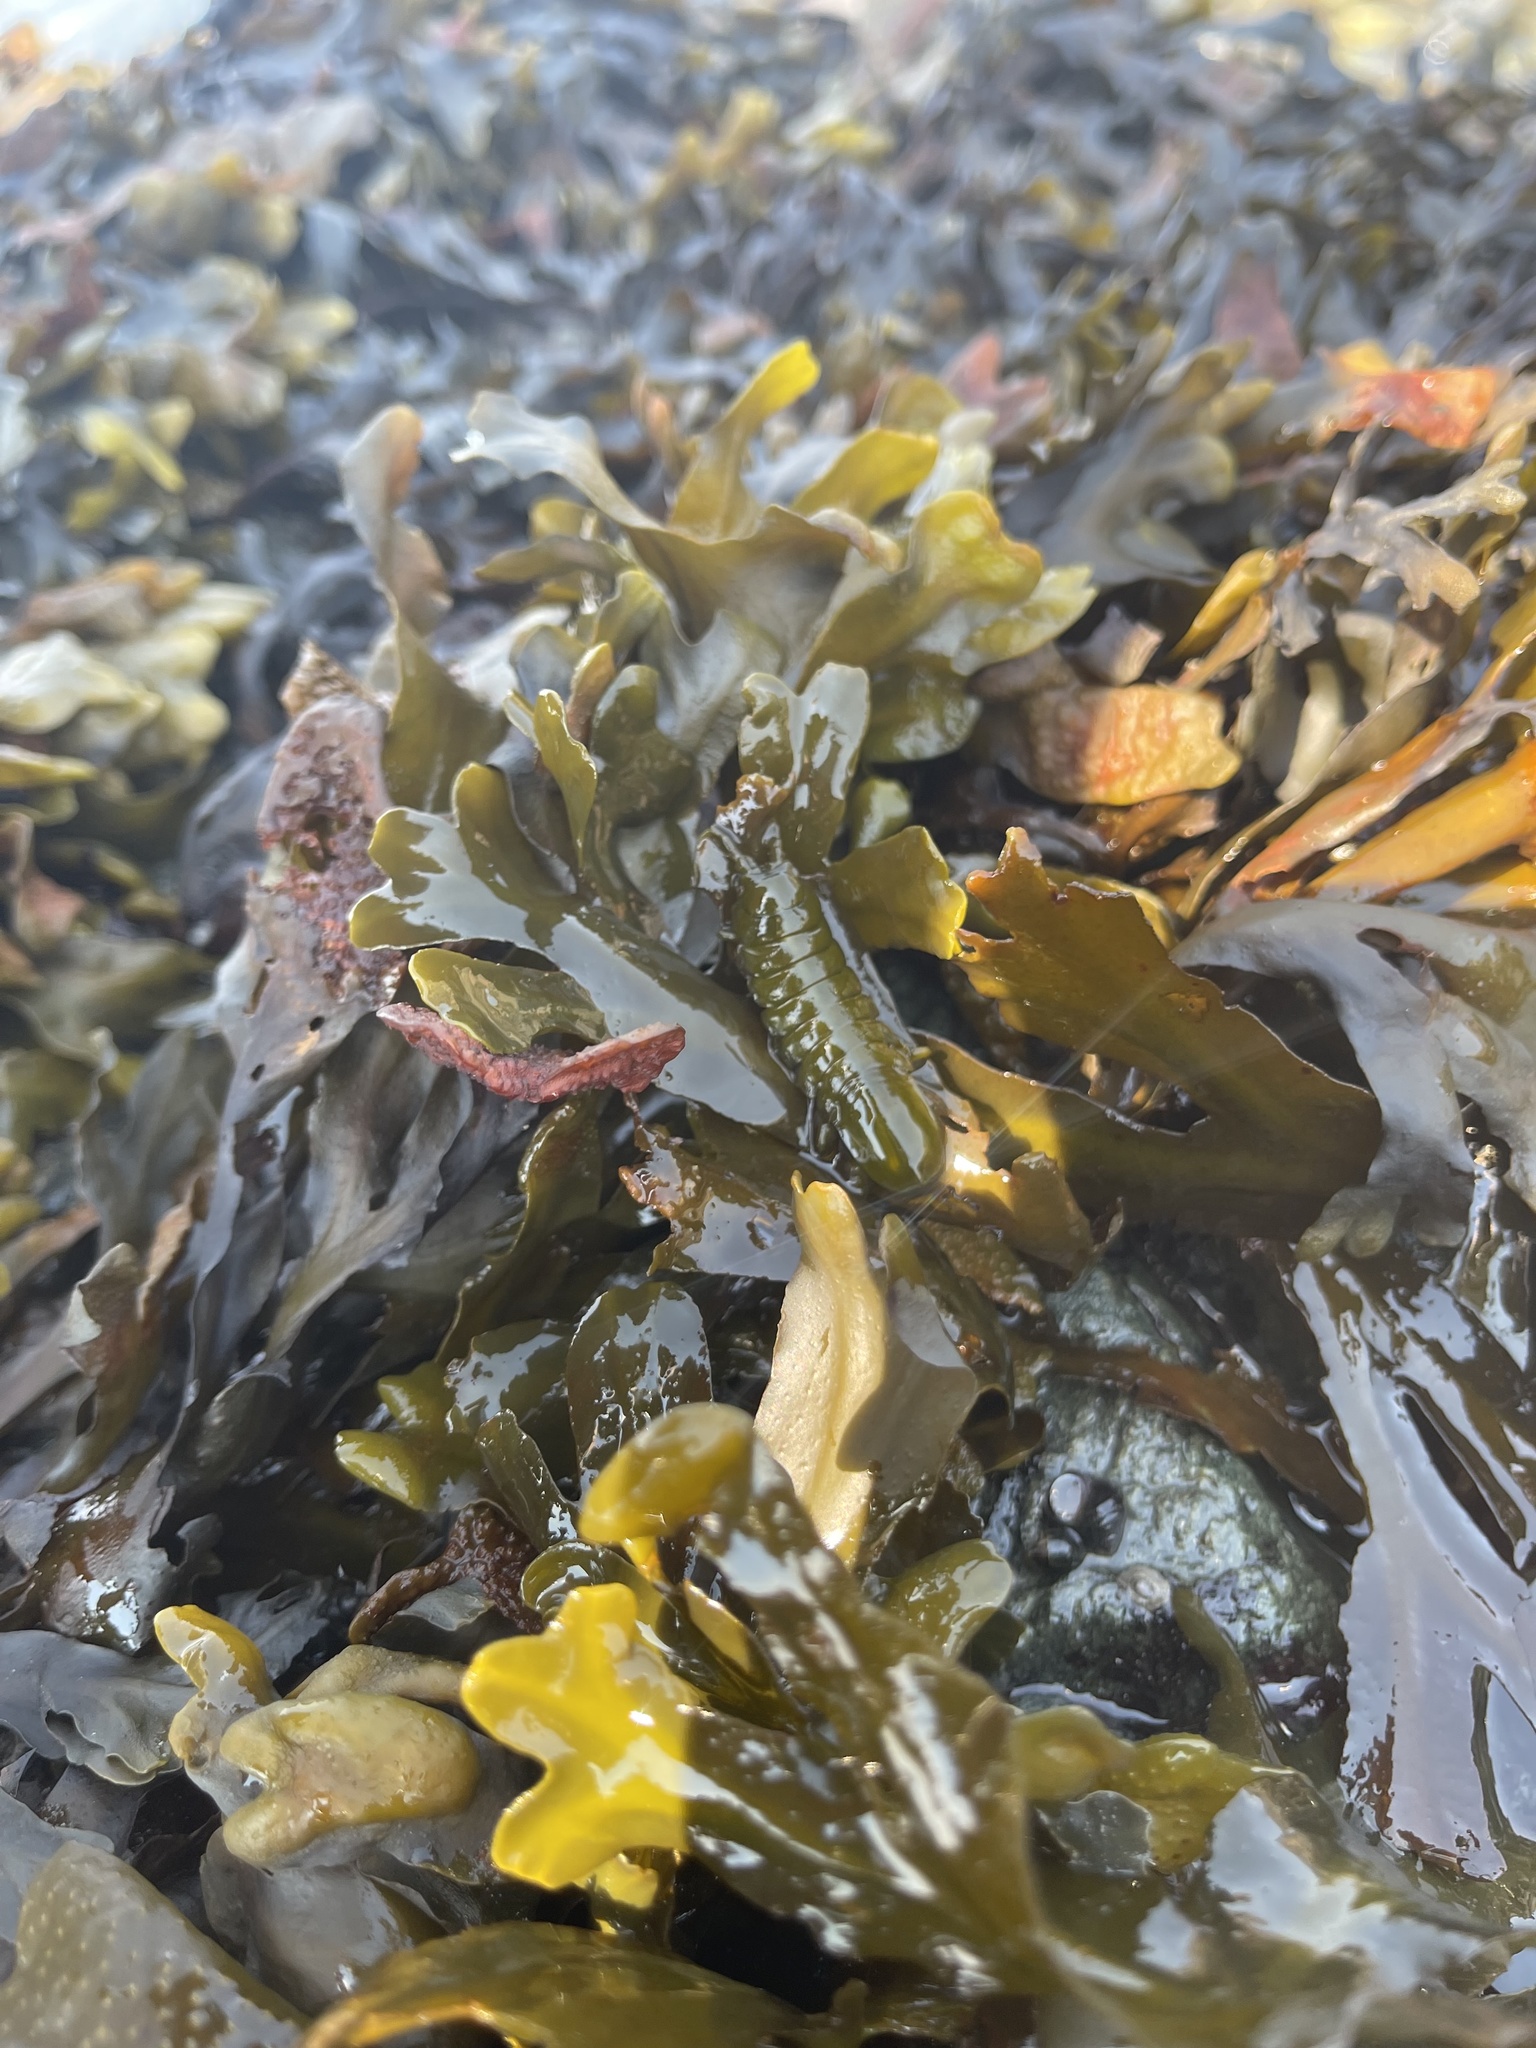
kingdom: Animalia
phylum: Arthropoda
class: Malacostraca
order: Isopoda
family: Idoteidae
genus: Pentidotea
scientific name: Pentidotea wosnesenskii
